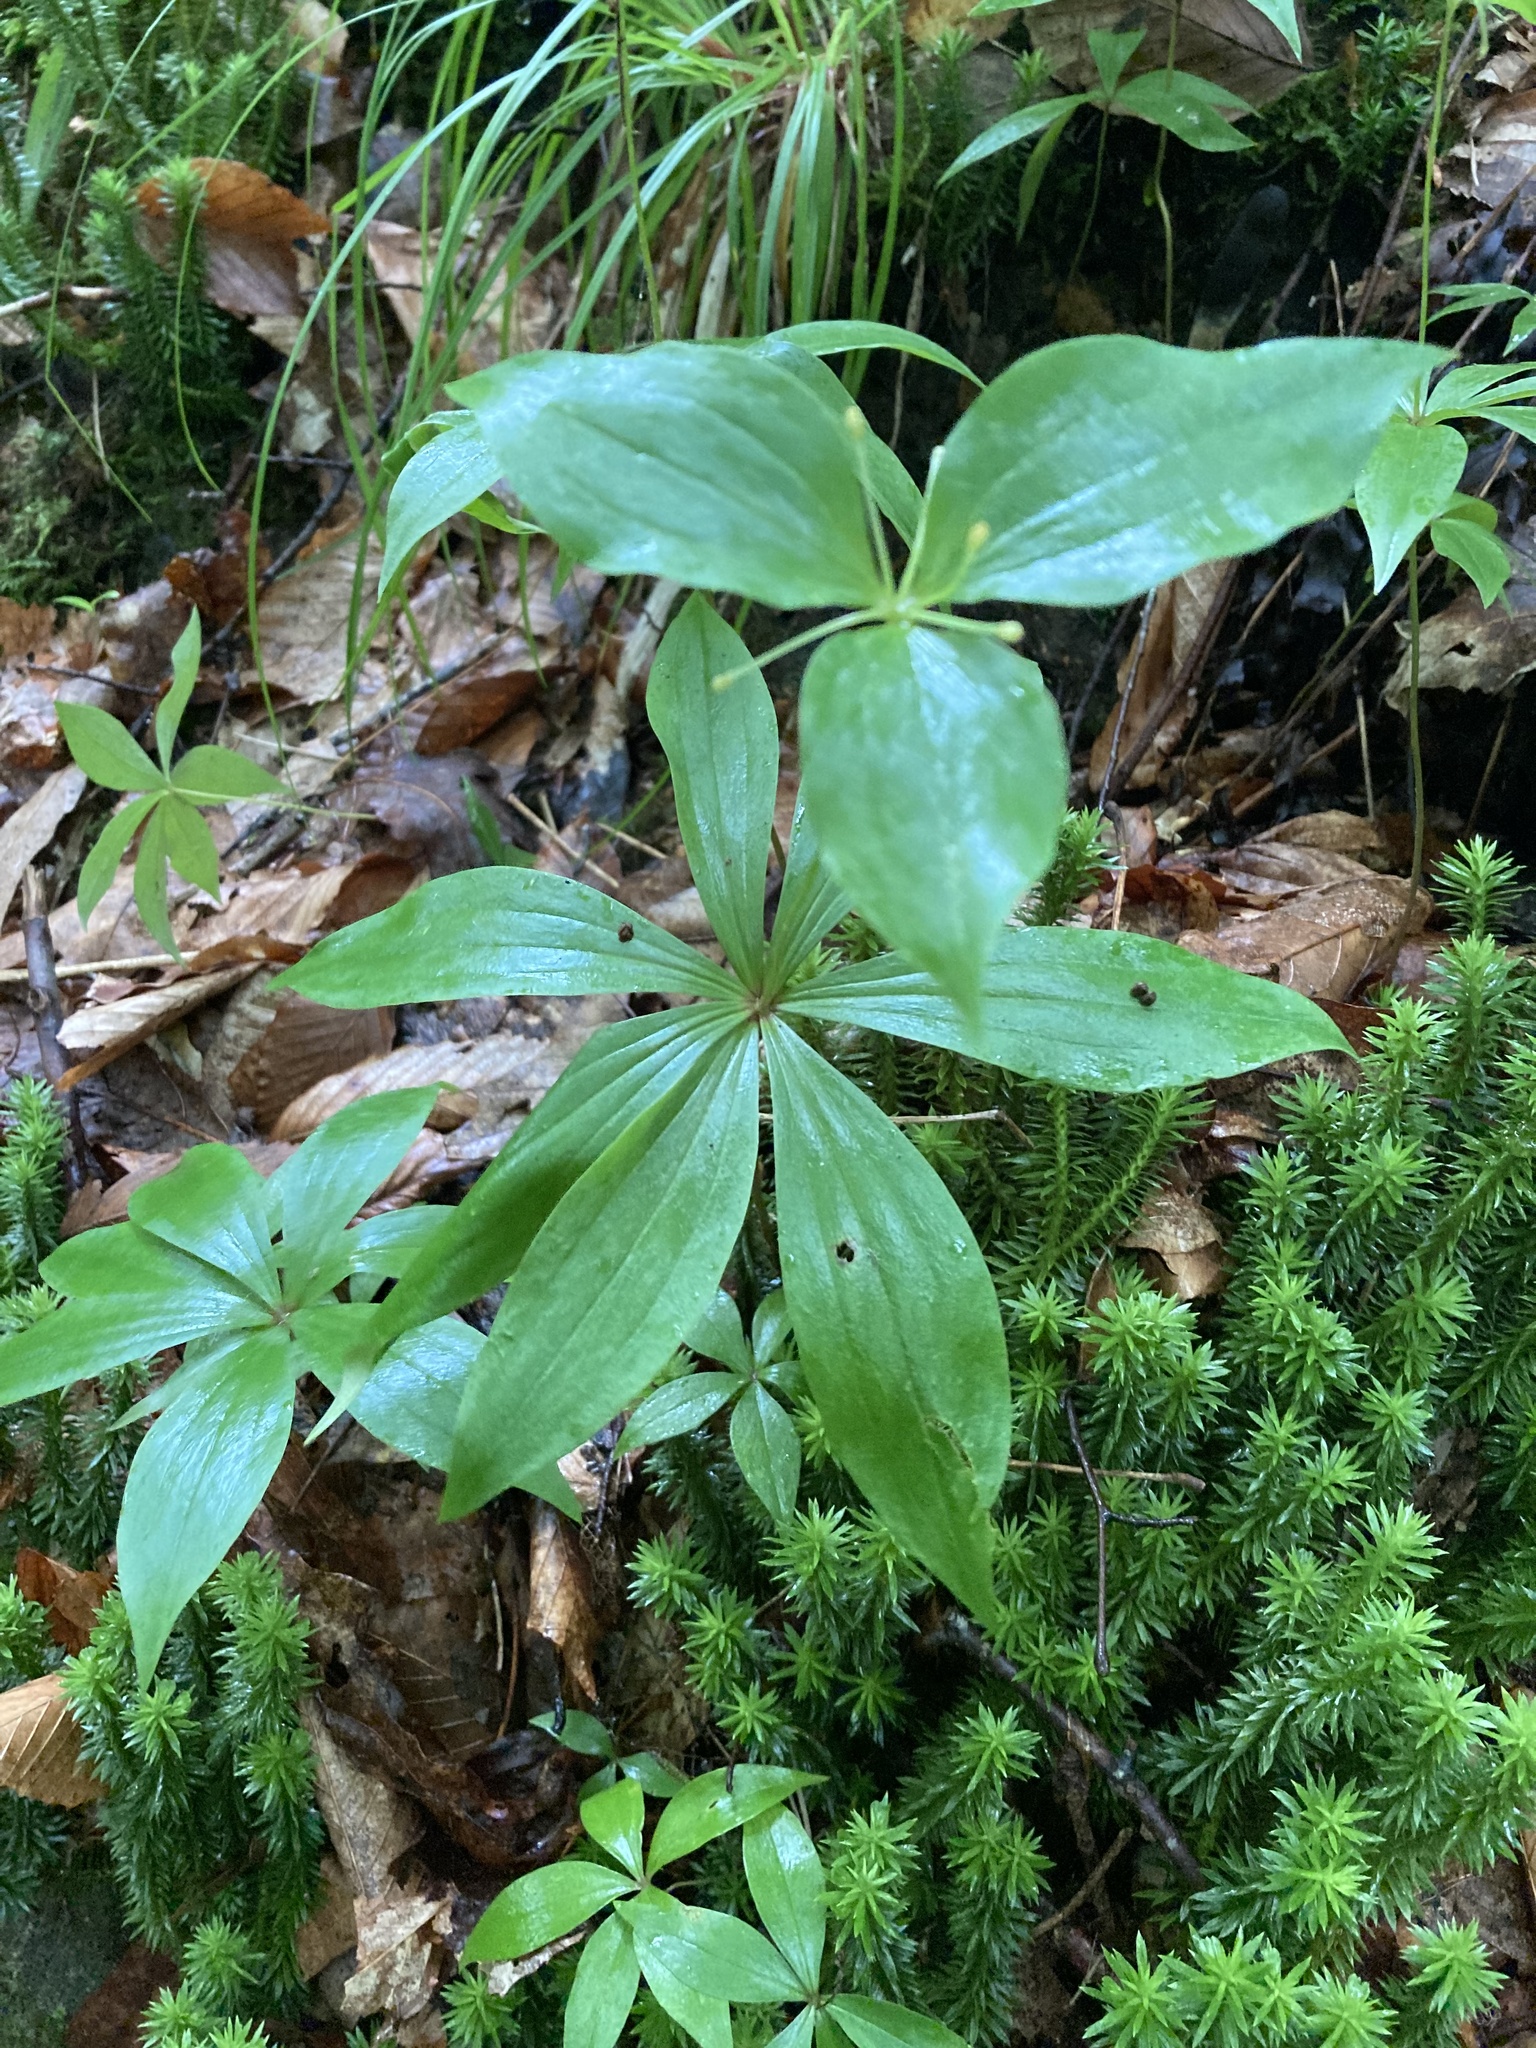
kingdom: Plantae
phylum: Tracheophyta
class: Liliopsida
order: Liliales
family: Liliaceae
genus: Medeola
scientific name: Medeola virginiana
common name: Indian cucumber-root
